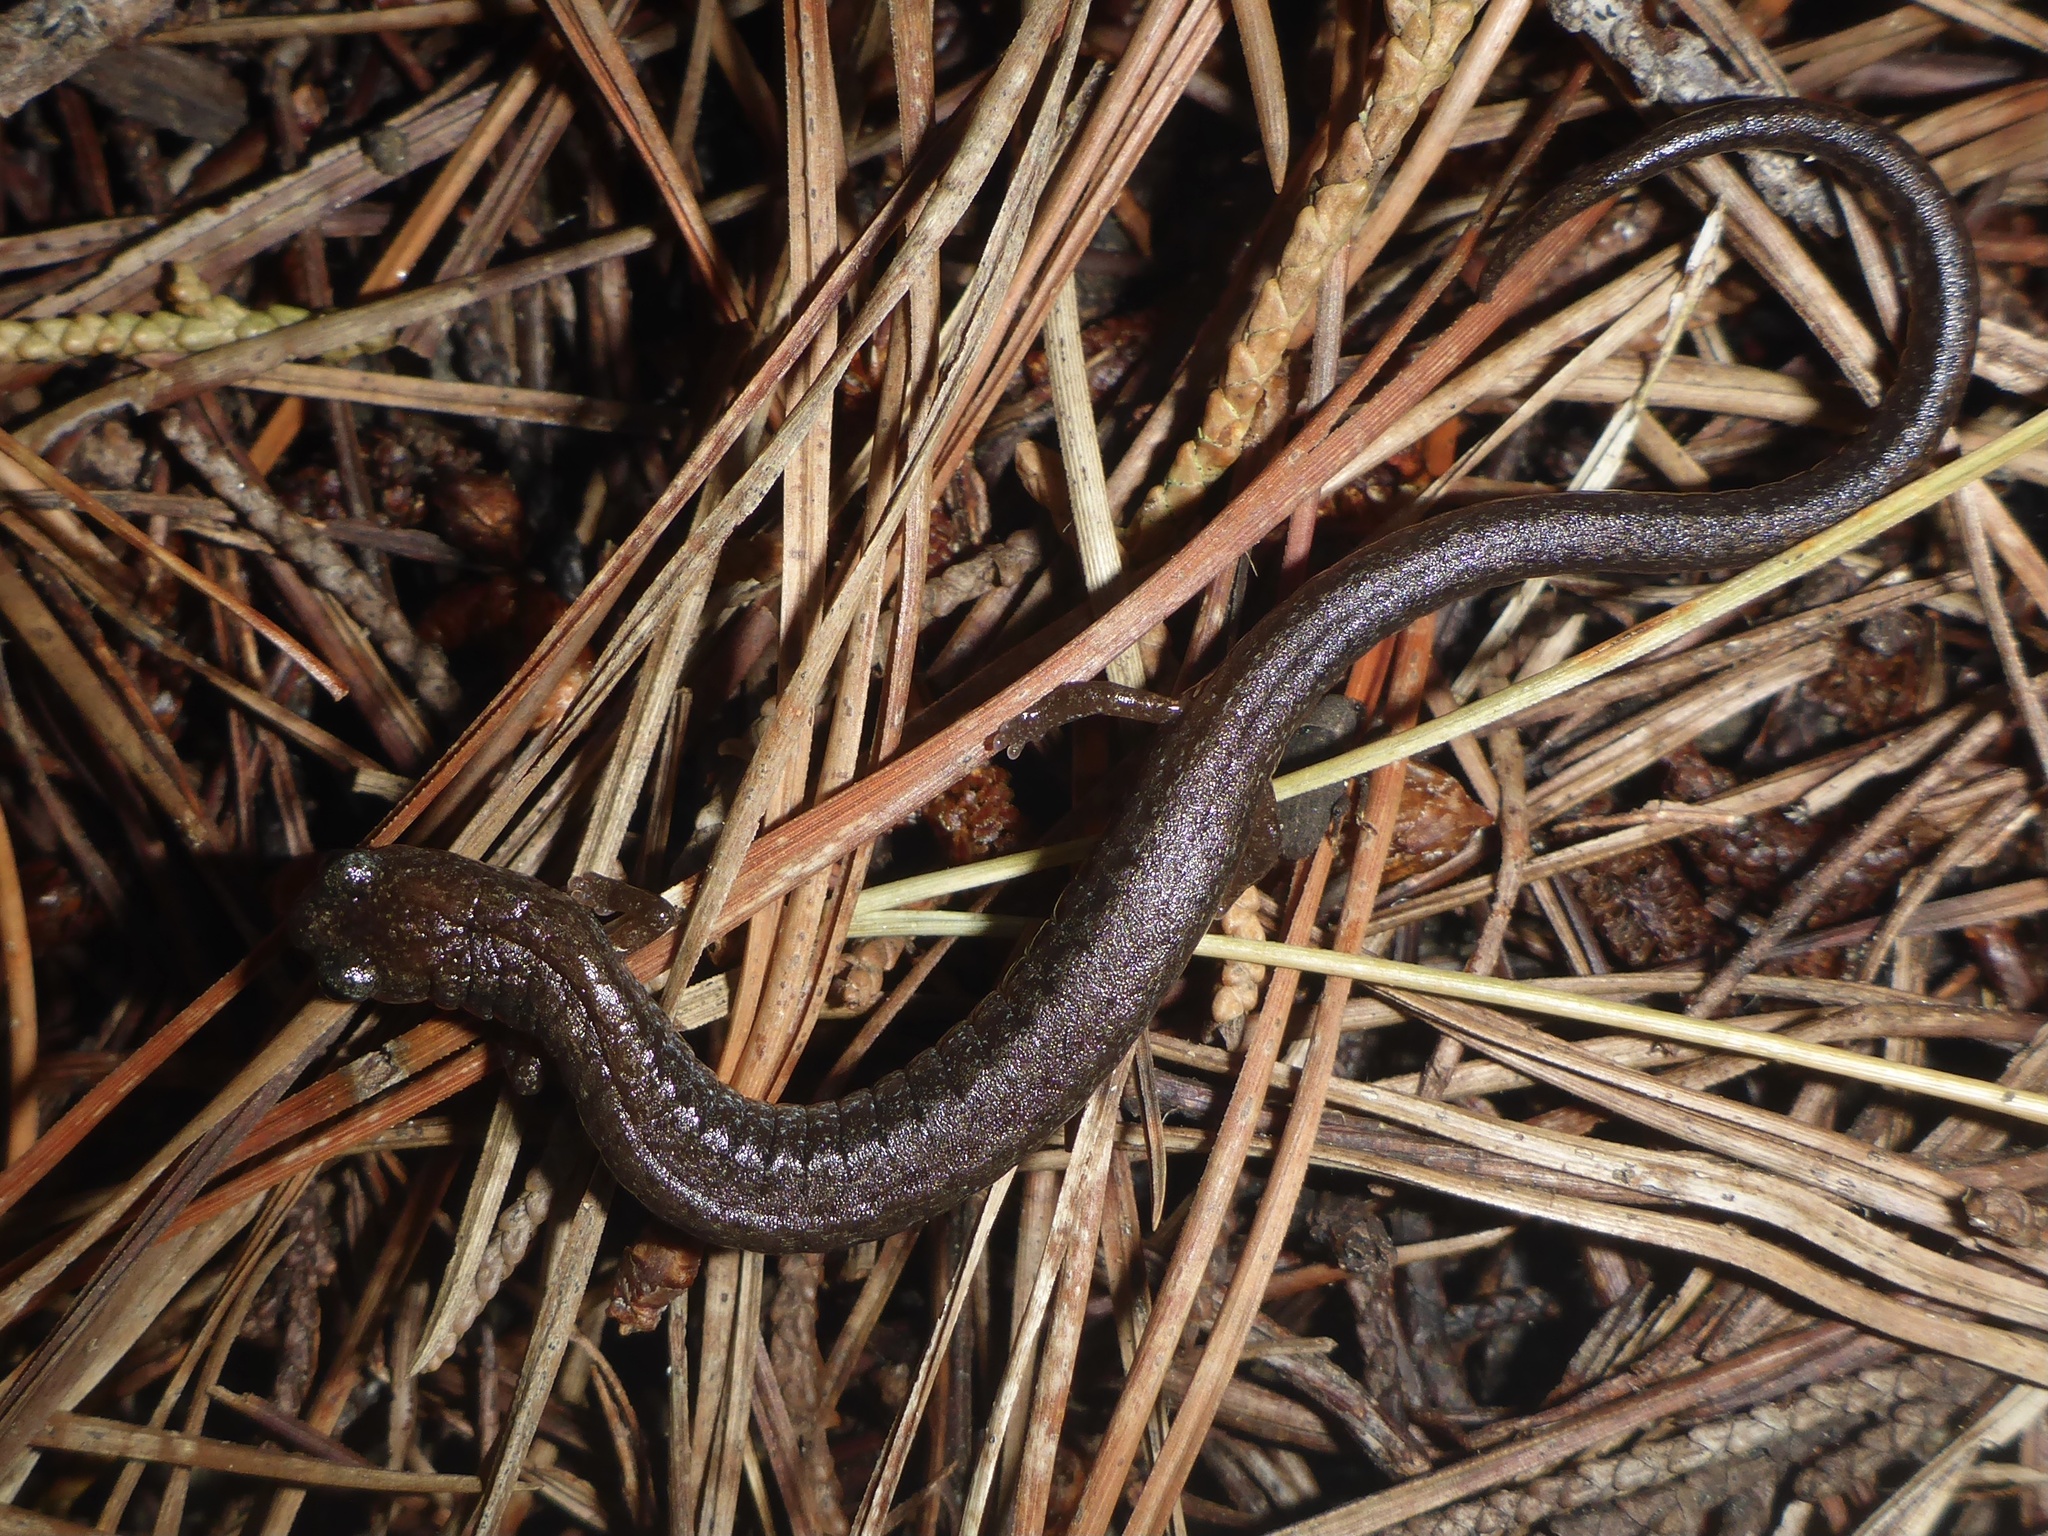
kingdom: Animalia
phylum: Chordata
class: Amphibia
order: Caudata
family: Plethodontidae
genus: Batrachoseps
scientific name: Batrachoseps attenuatus
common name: California slender salamander
